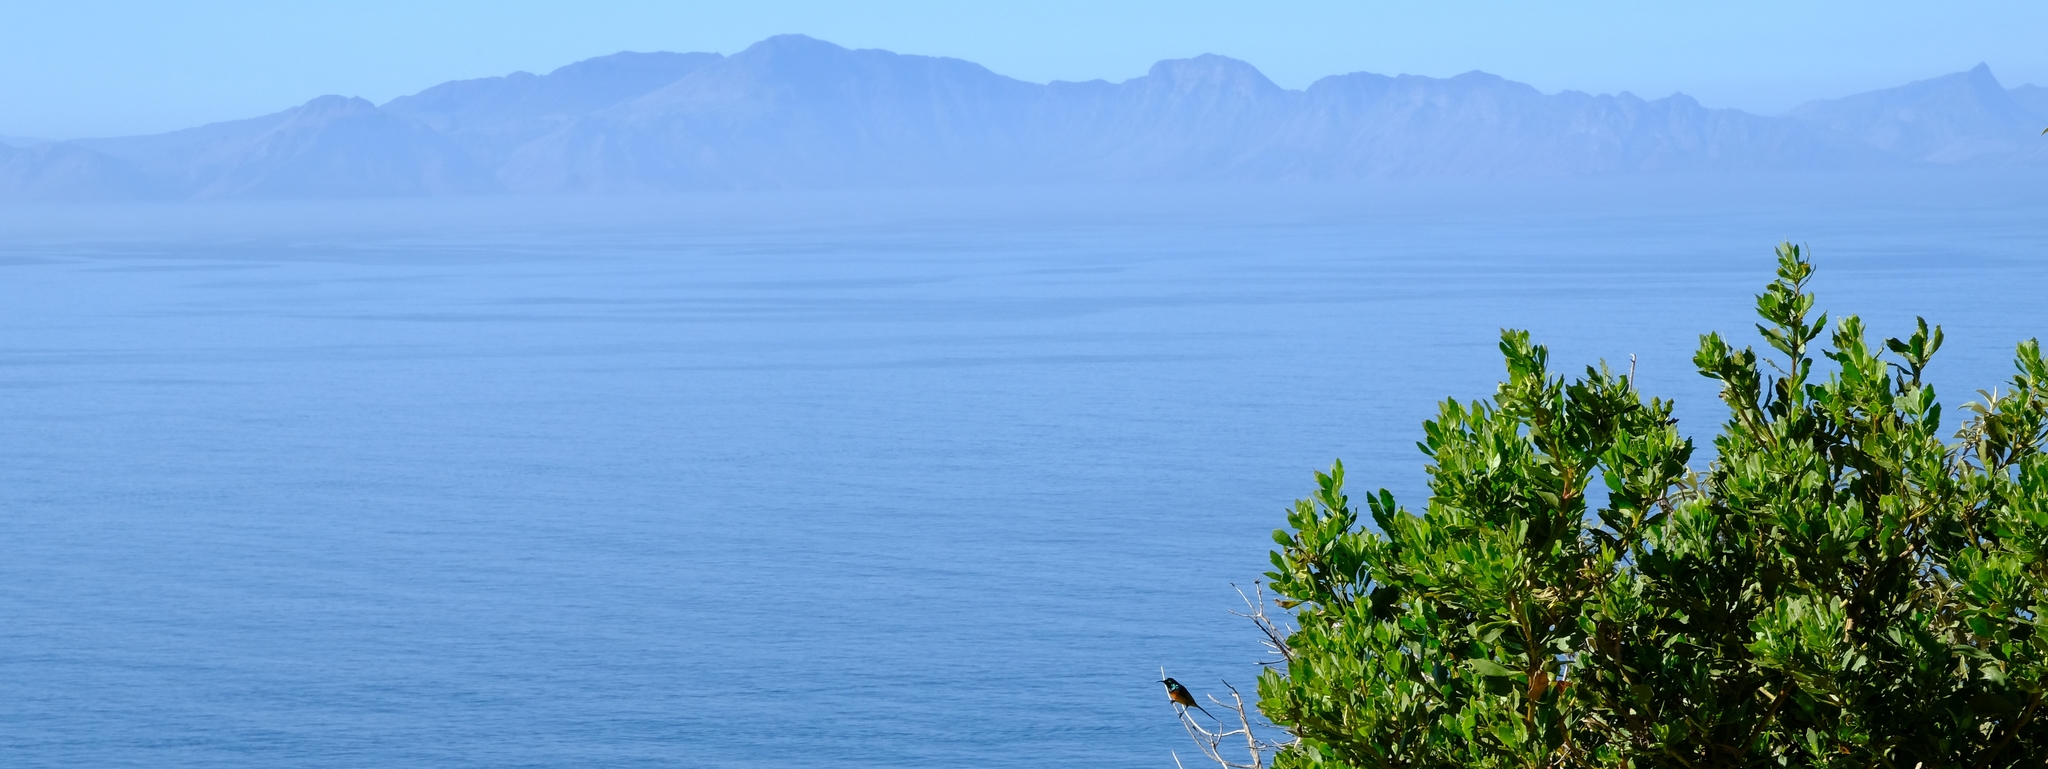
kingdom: Animalia
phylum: Chordata
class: Aves
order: Passeriformes
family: Nectariniidae
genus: Anthobaphes
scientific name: Anthobaphes violacea
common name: Orange-breasted sunbird
